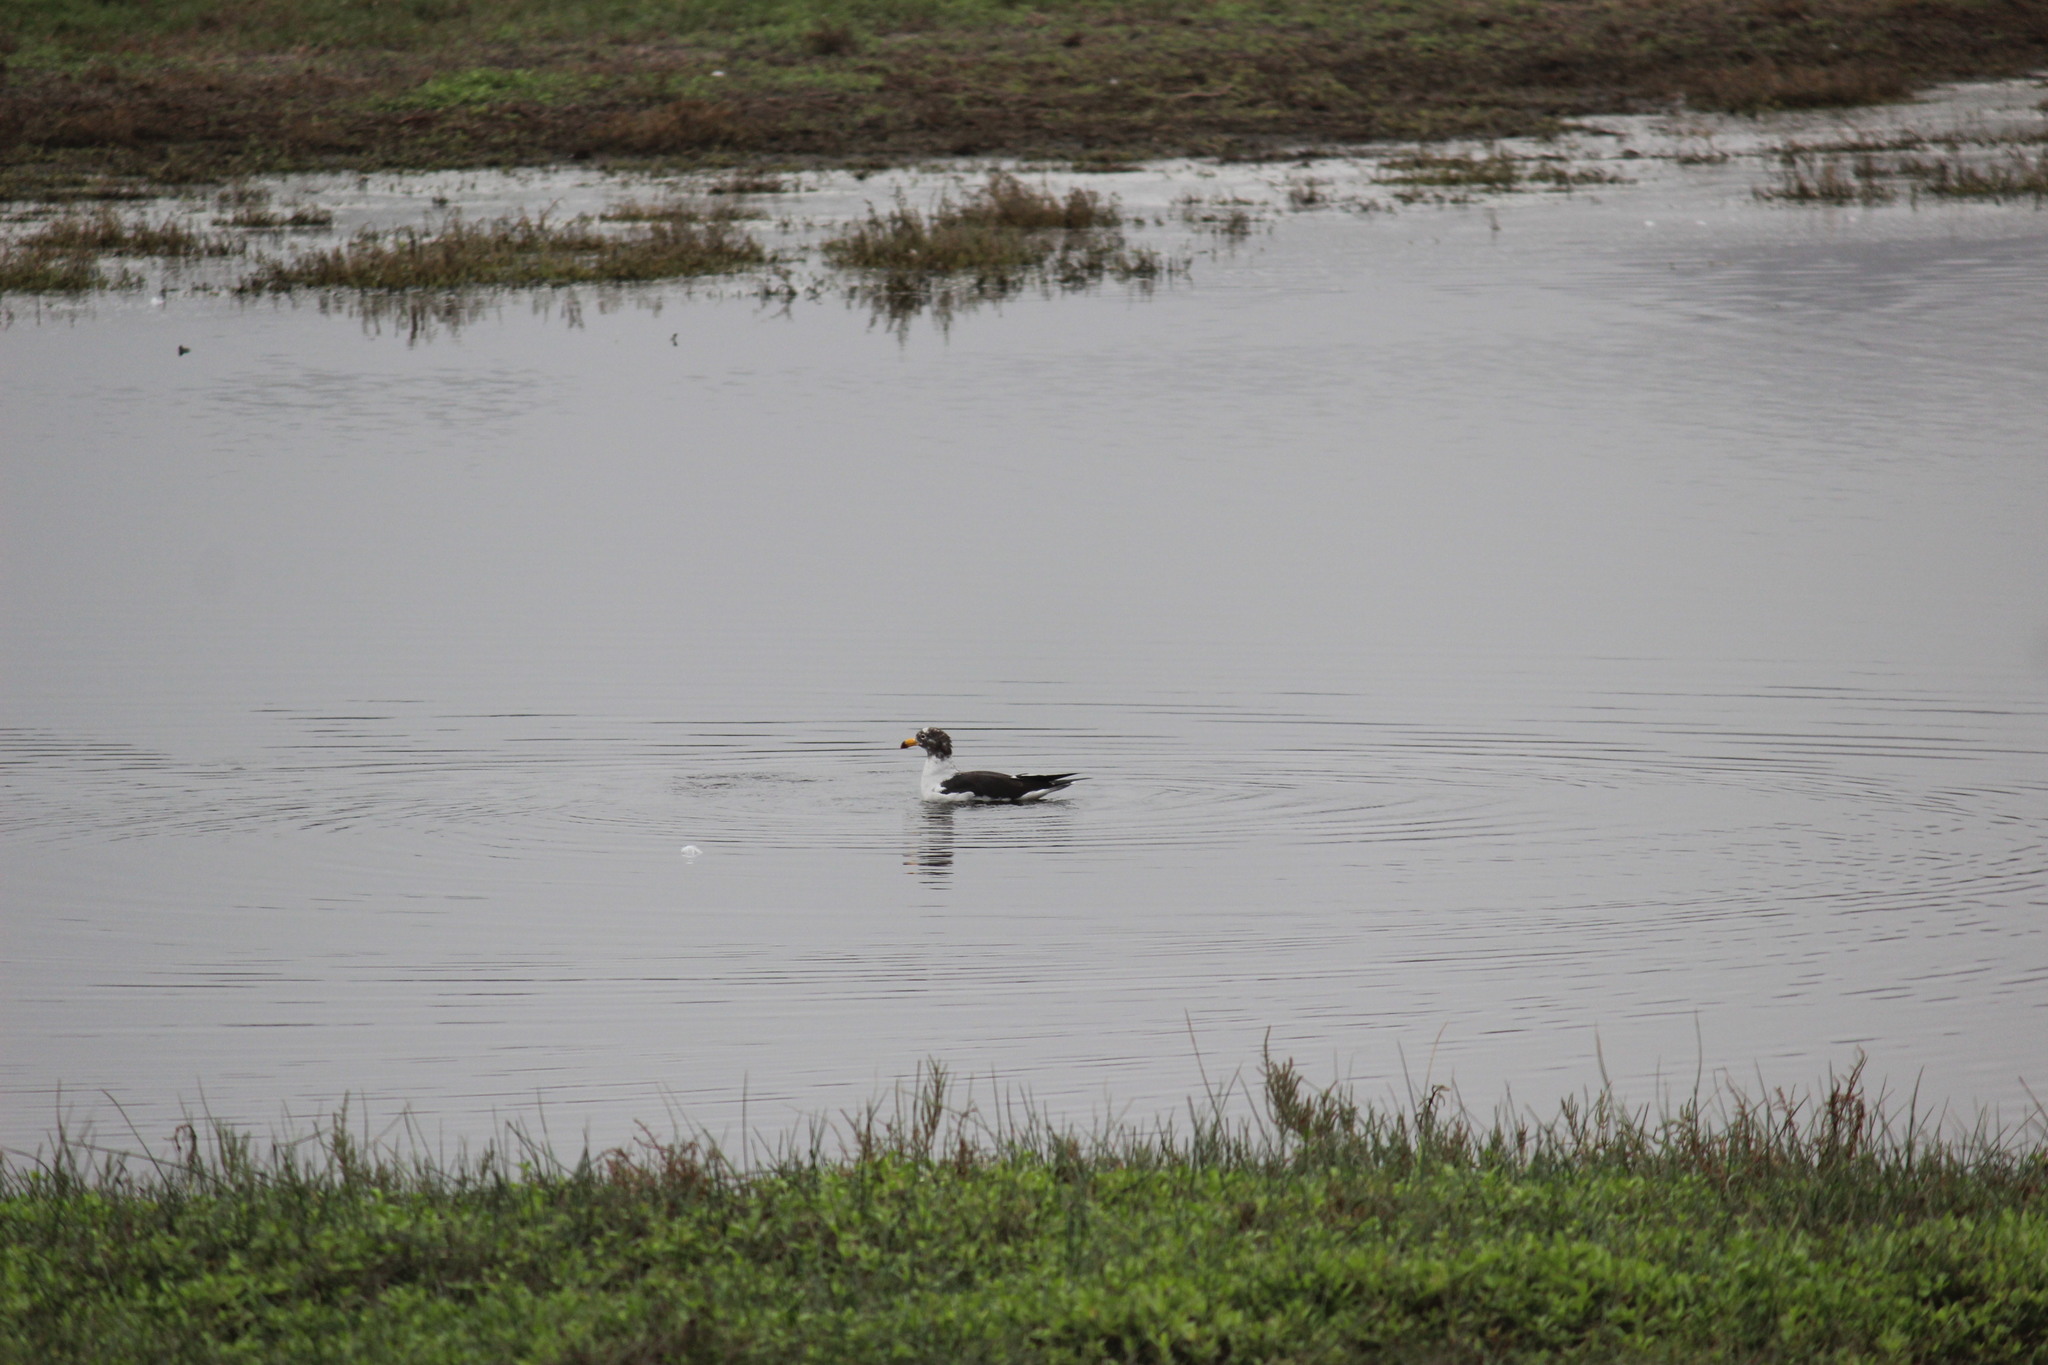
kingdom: Animalia
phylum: Chordata
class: Aves
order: Charadriiformes
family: Laridae
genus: Larus
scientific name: Larus belcheri
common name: Belcher's gull
